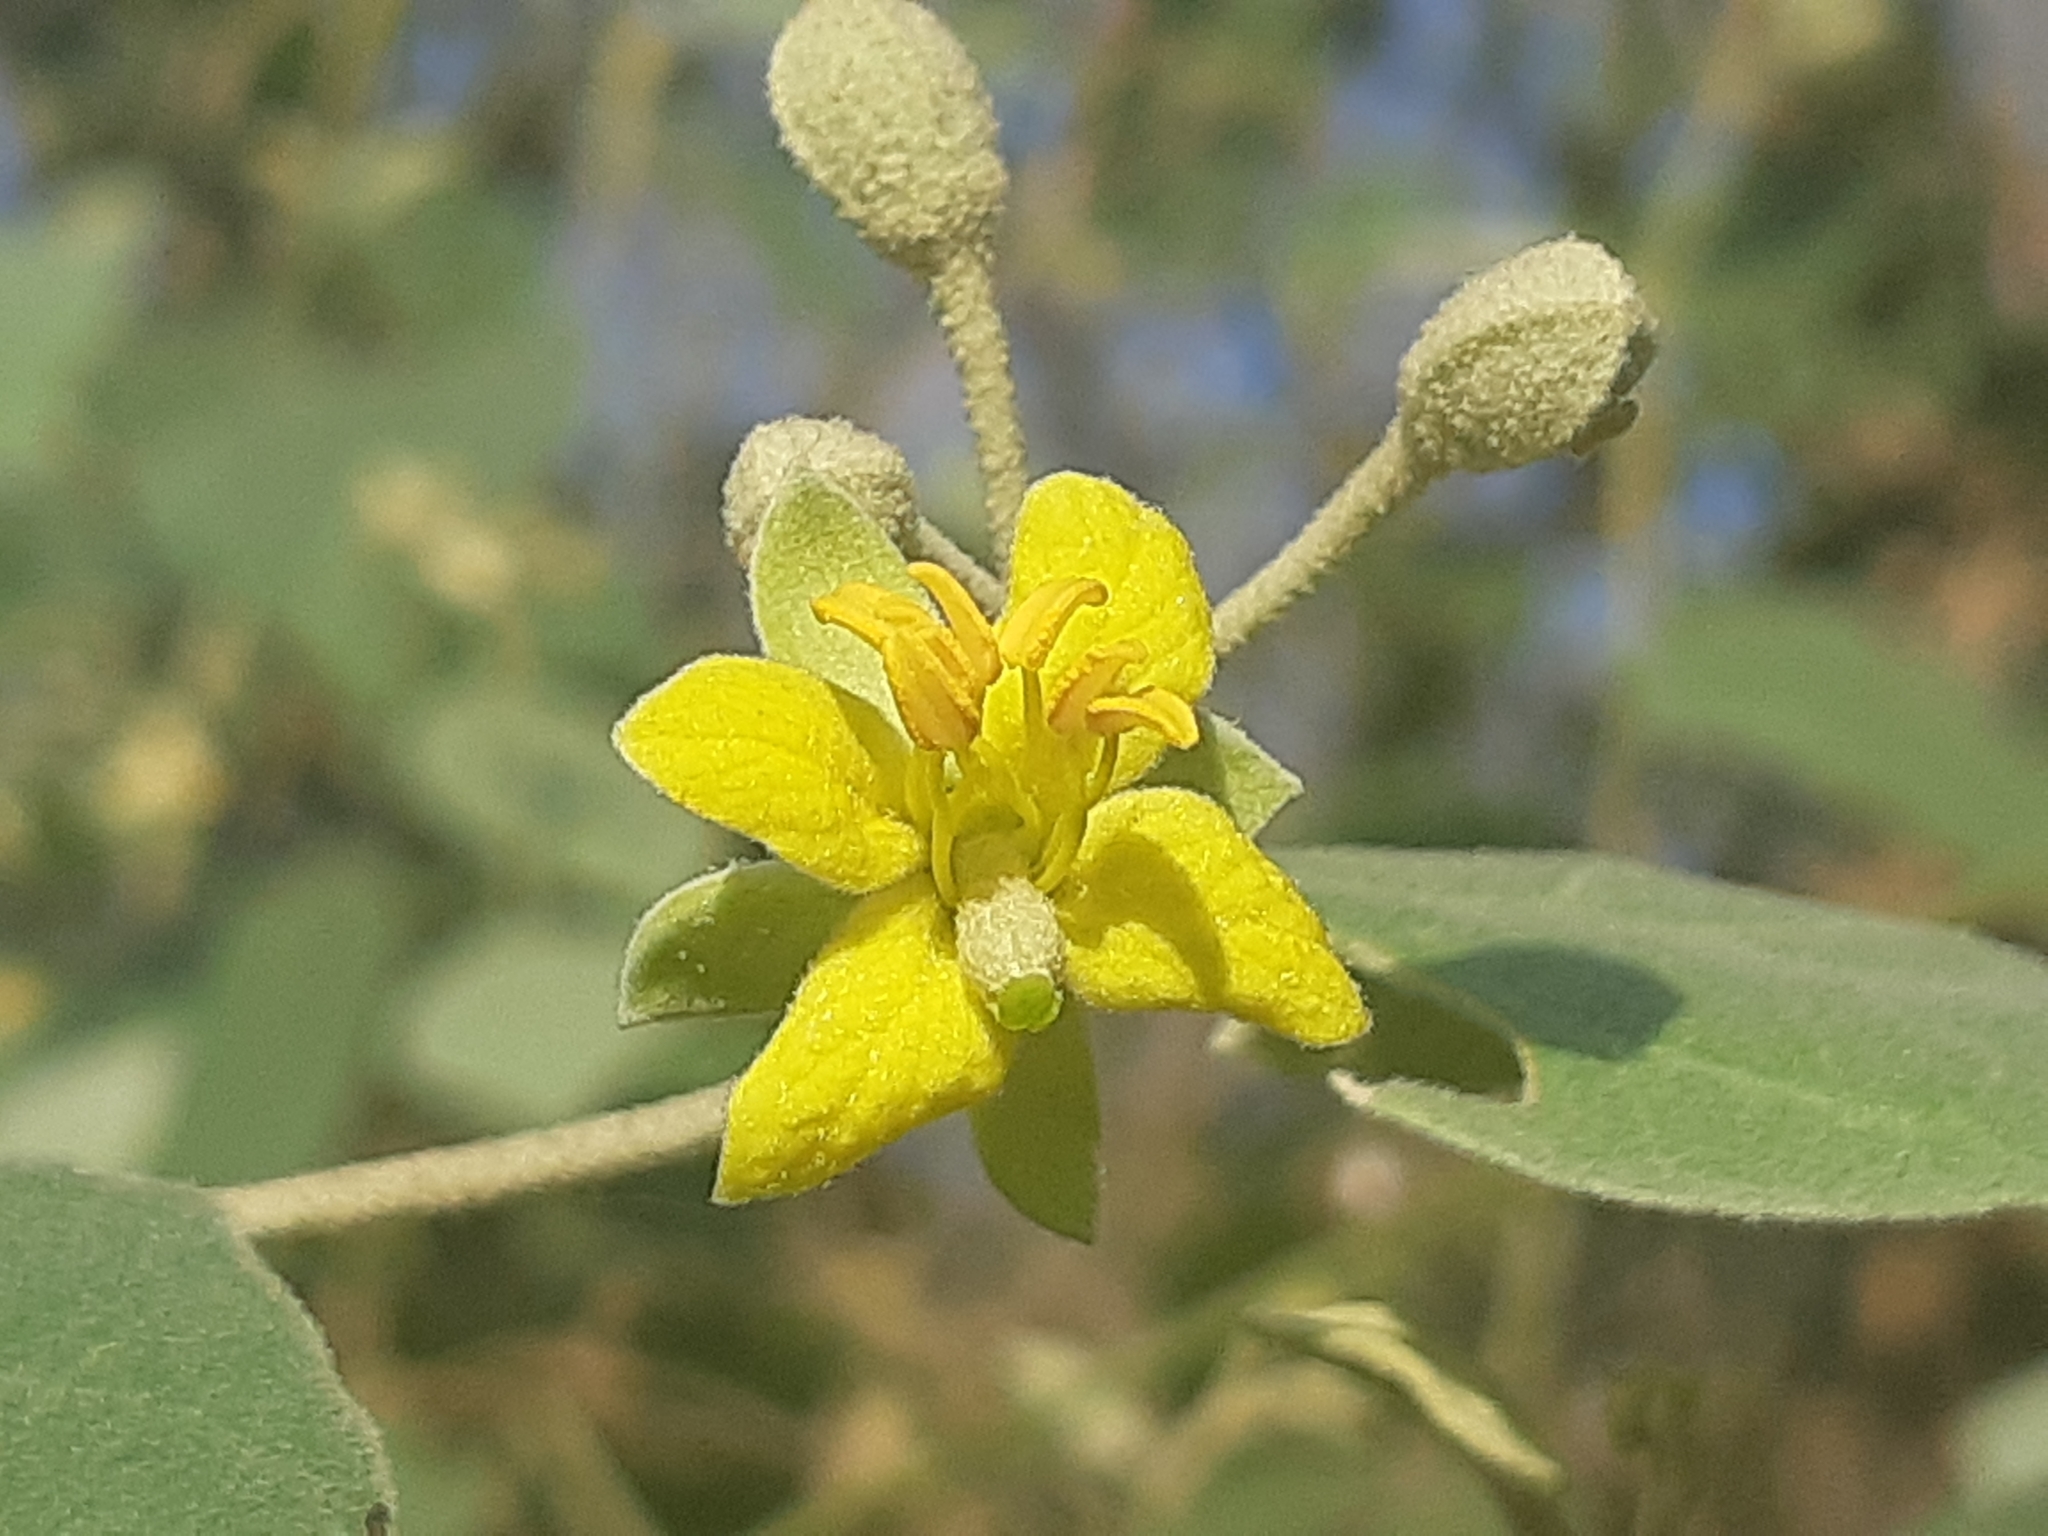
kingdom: Plantae
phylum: Tracheophyta
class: Magnoliopsida
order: Brassicales
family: Capparaceae
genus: Capparicordis
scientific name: Capparicordis crotonoides
